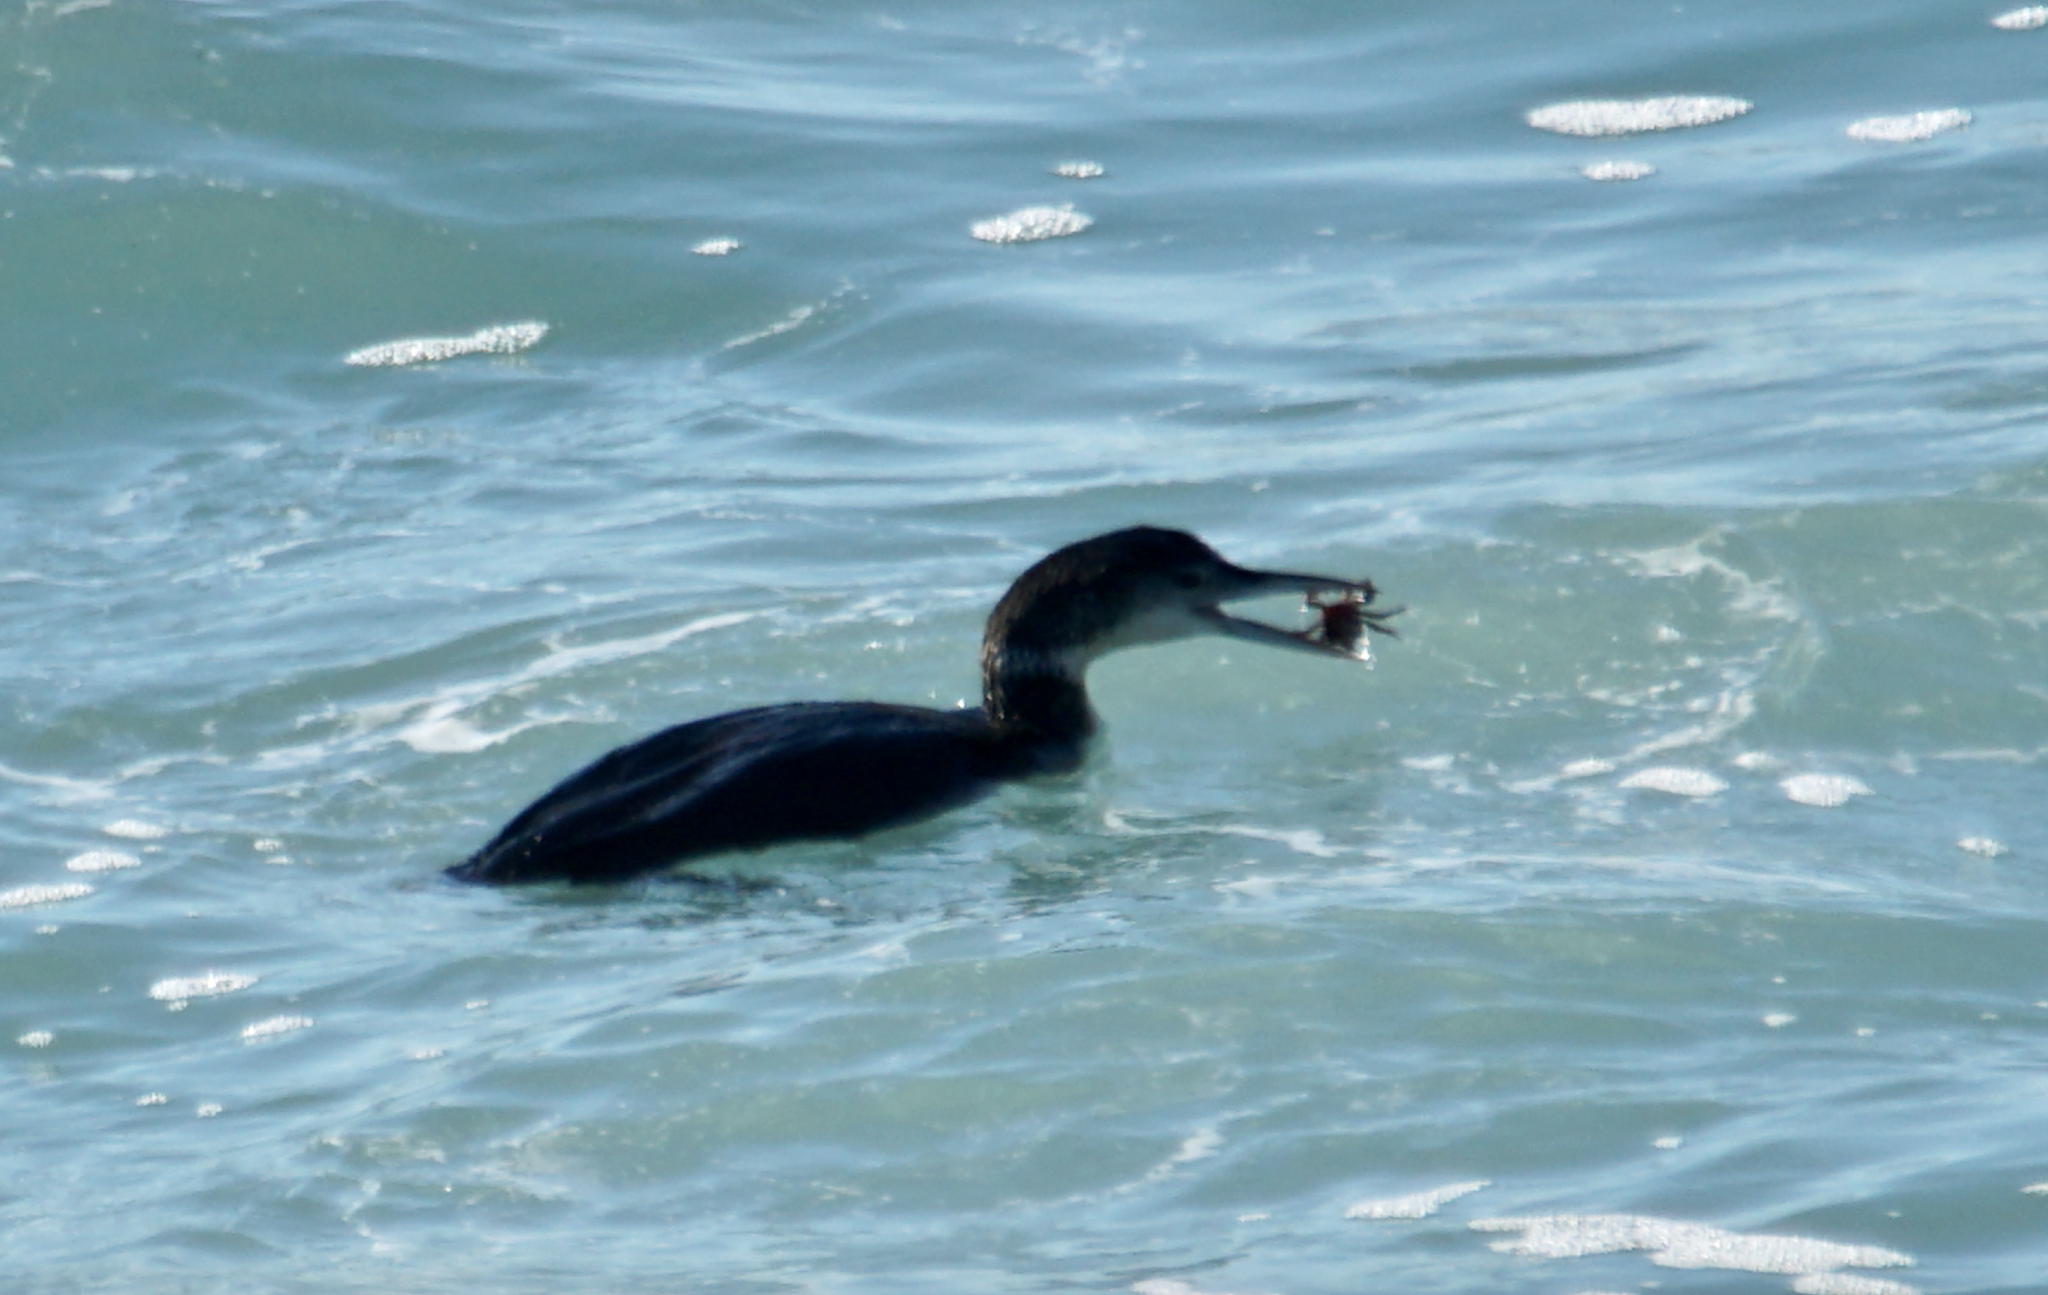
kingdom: Animalia
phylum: Chordata
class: Aves
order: Gaviiformes
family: Gaviidae
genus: Gavia
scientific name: Gavia immer
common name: Common loon
